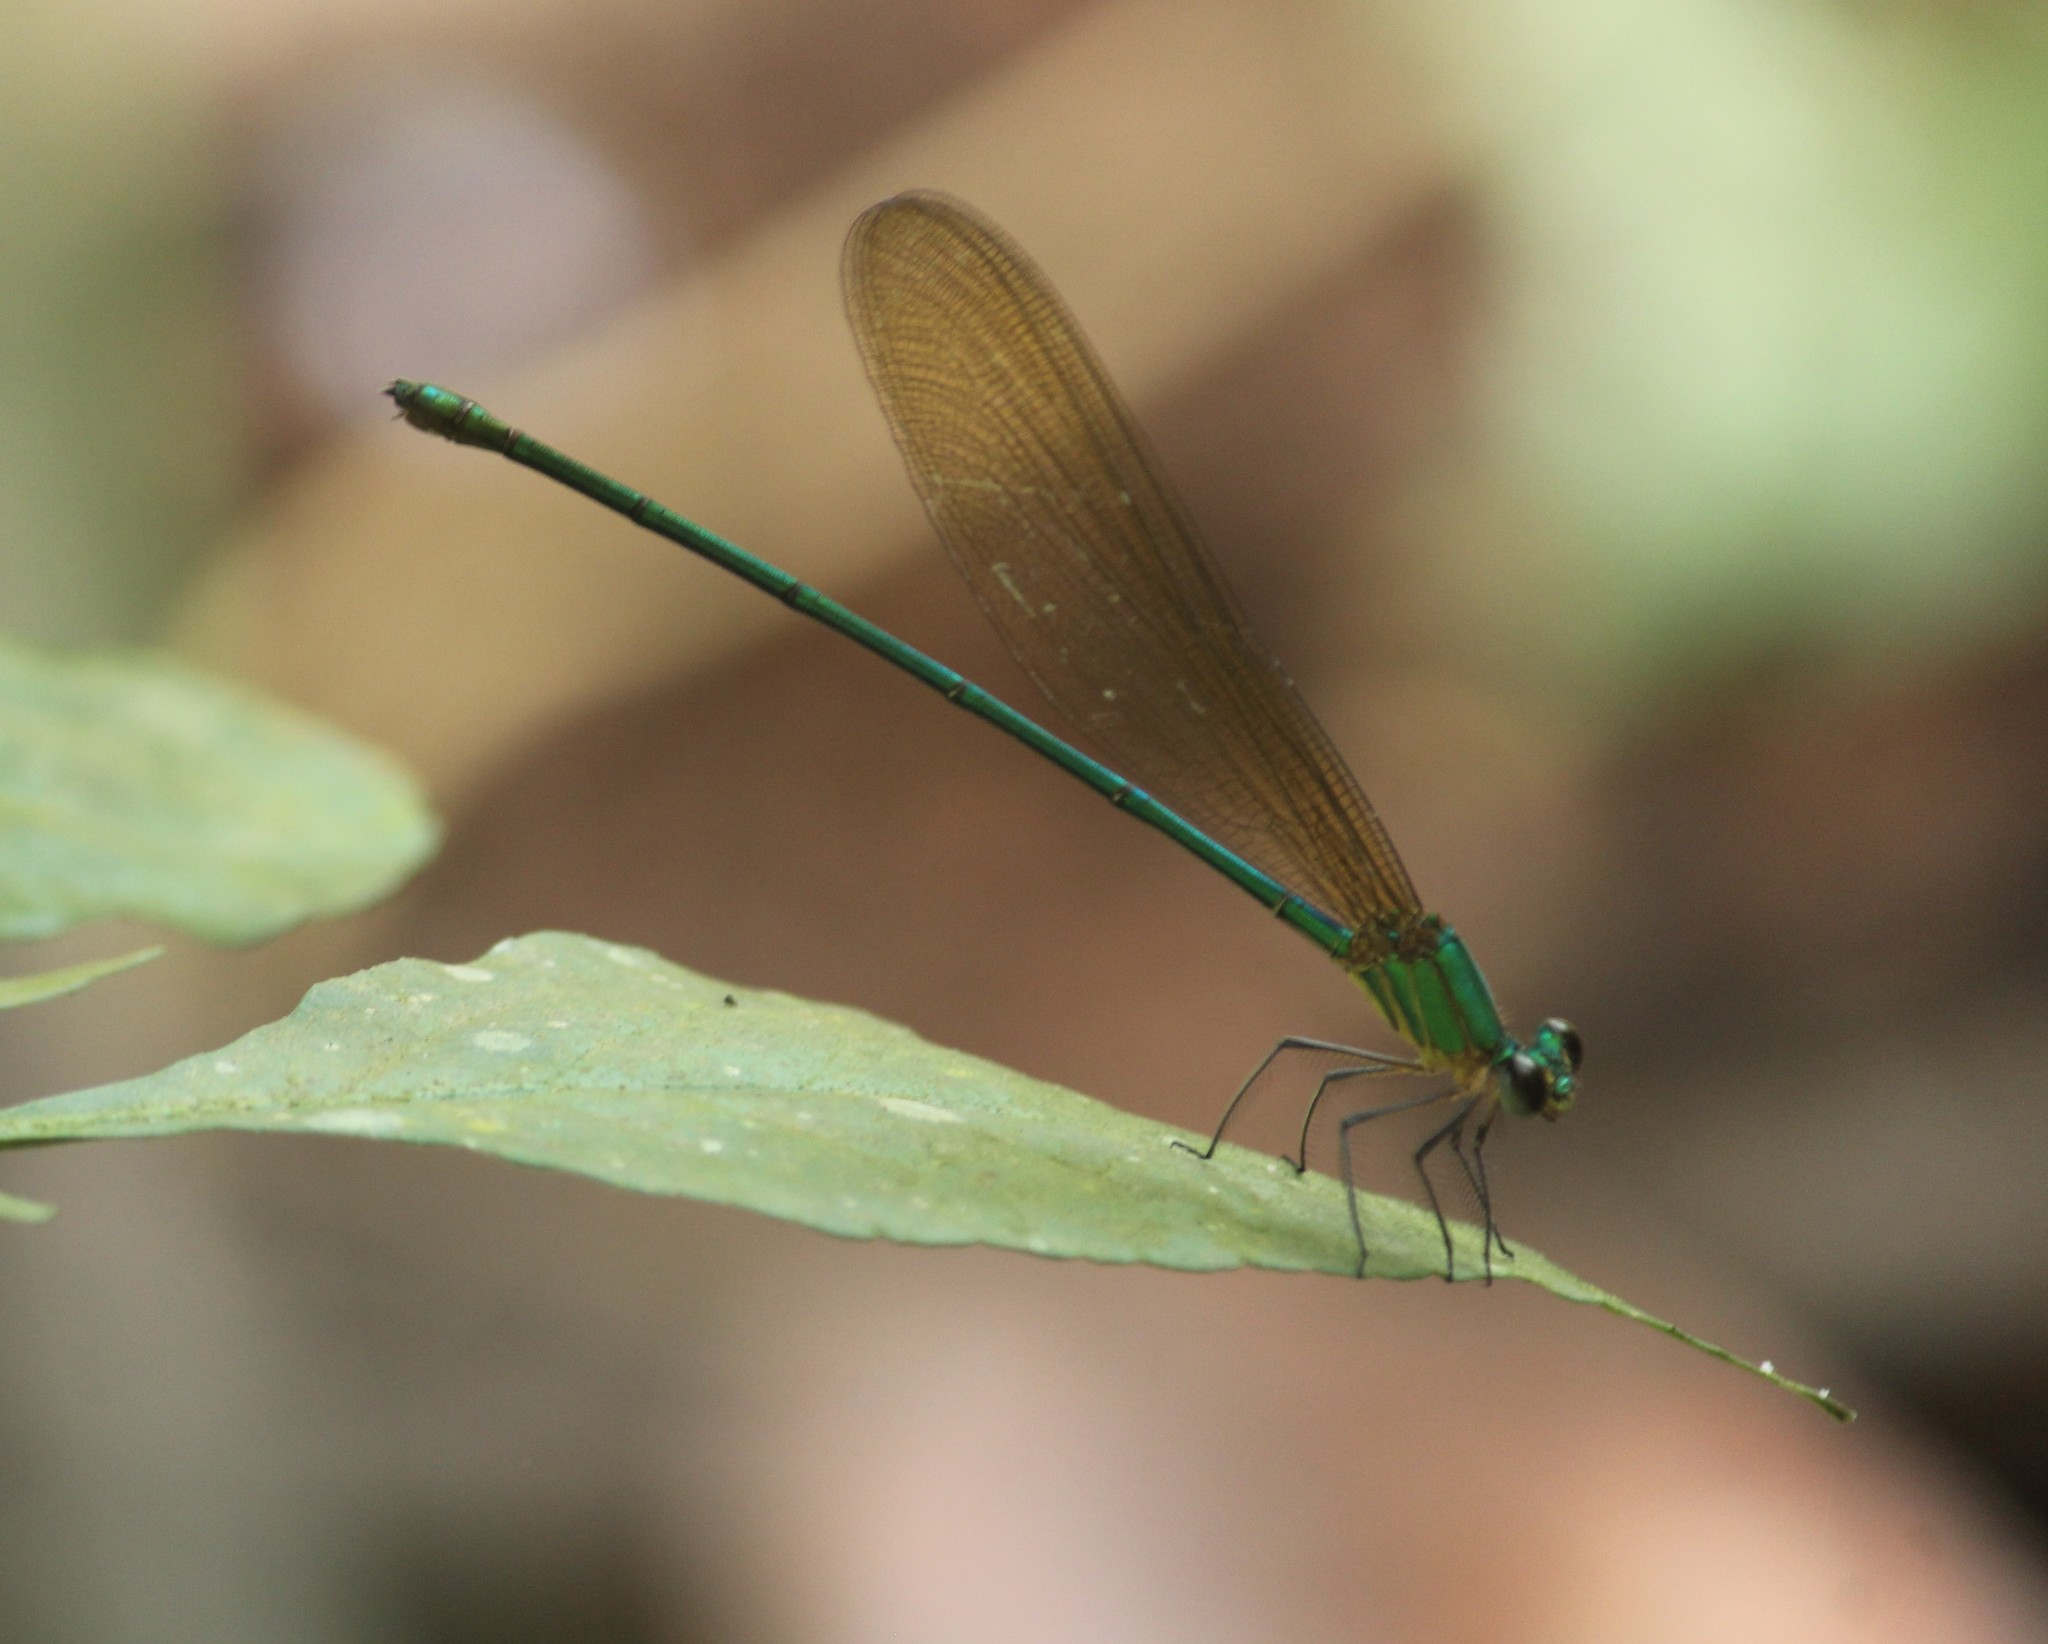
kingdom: Animalia
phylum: Arthropoda
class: Insecta
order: Odonata
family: Calopterygidae
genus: Vestalis
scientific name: Vestalis gracilis
